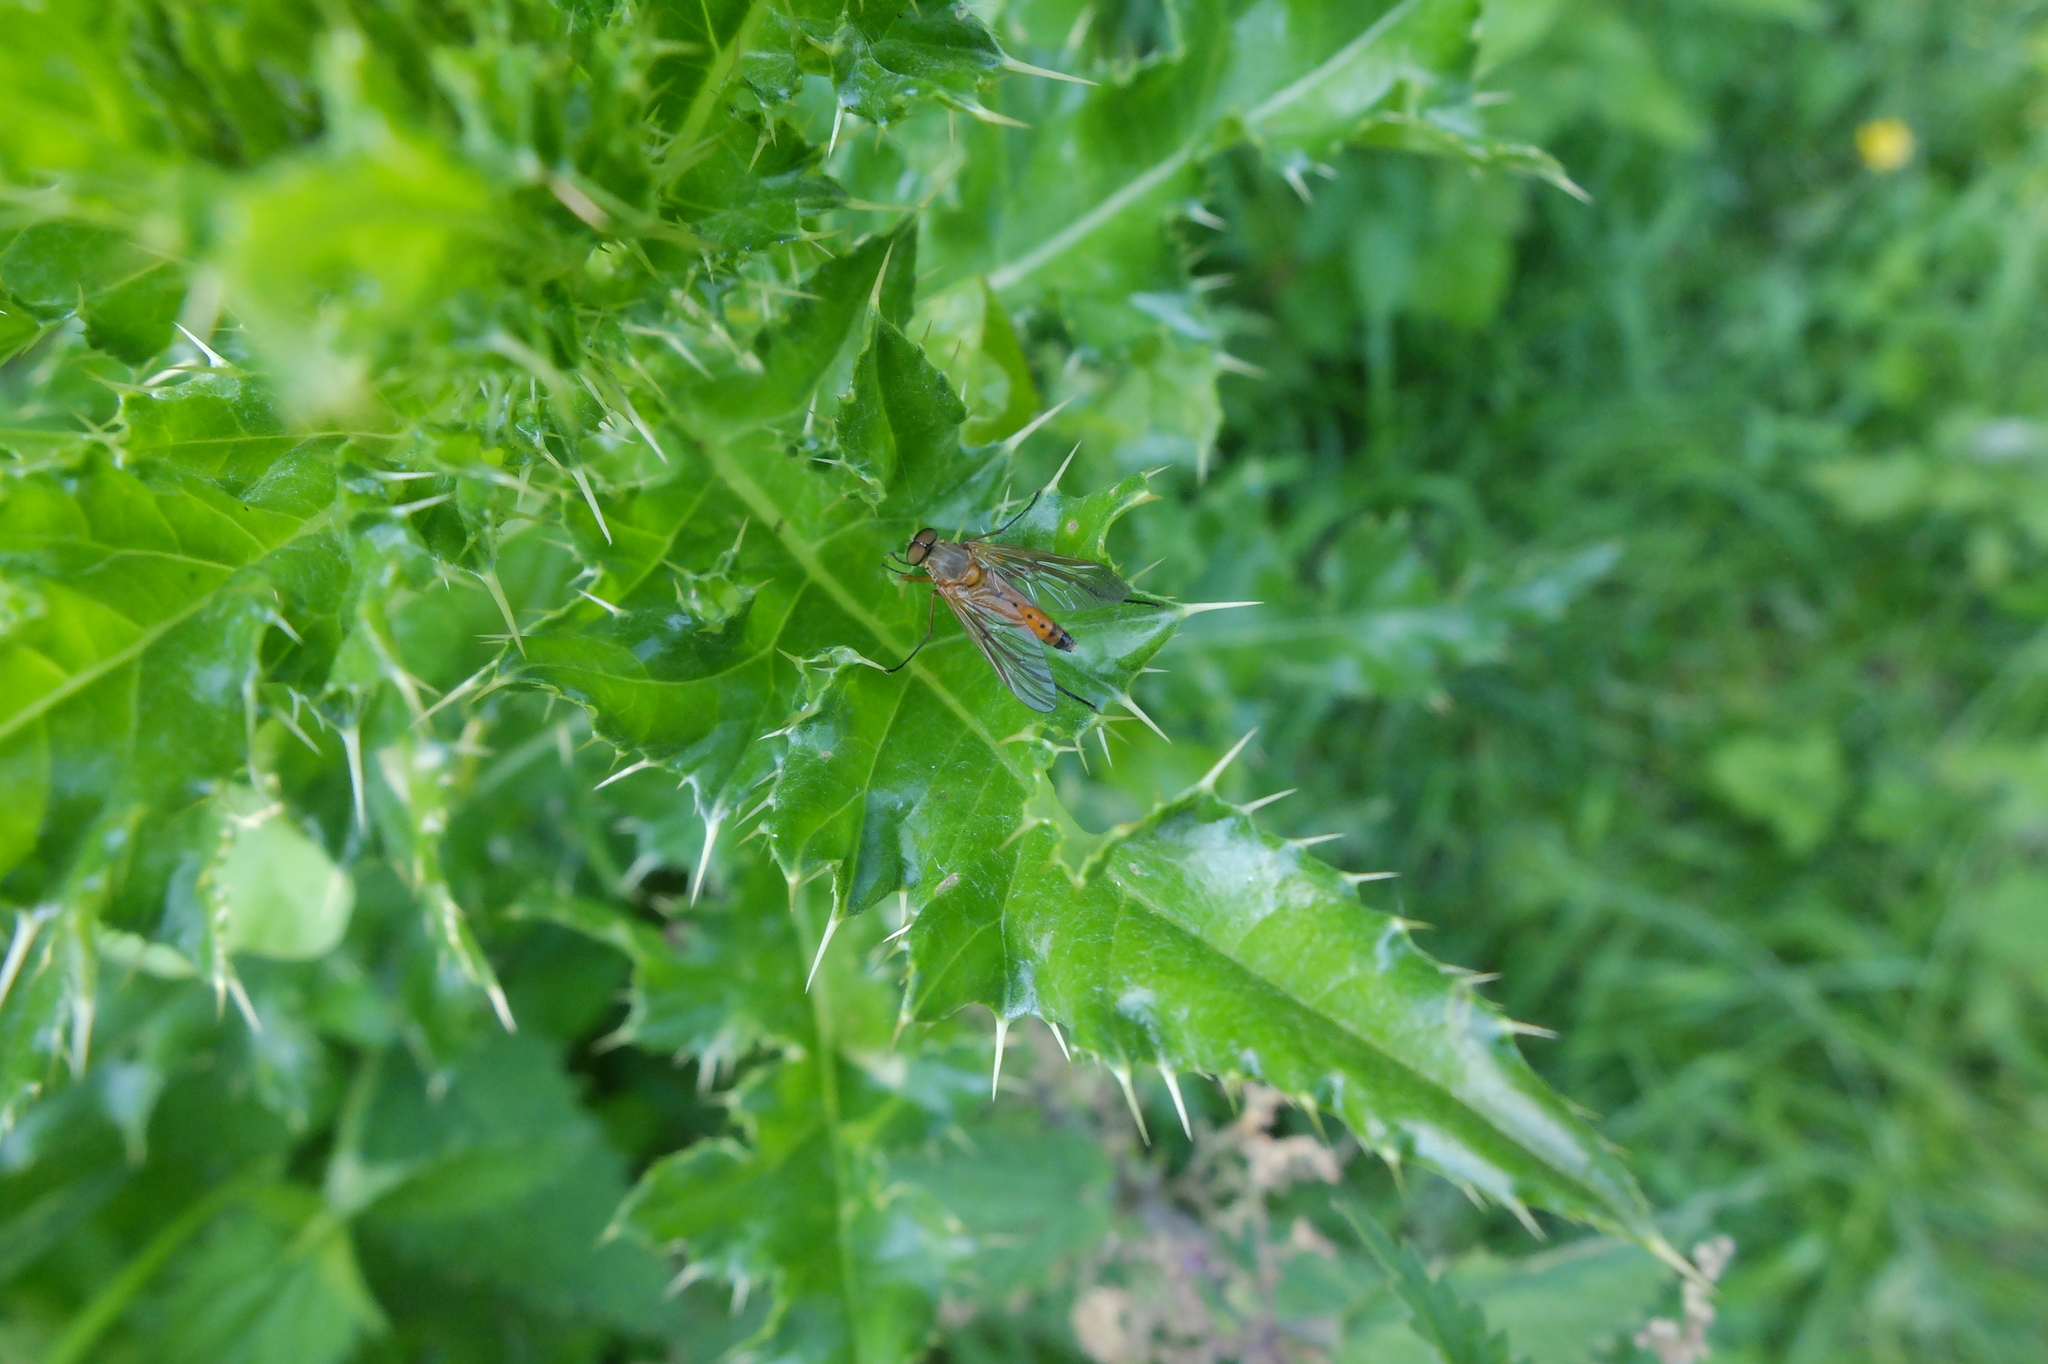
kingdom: Animalia
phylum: Arthropoda
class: Insecta
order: Diptera
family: Rhagionidae
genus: Rhagio
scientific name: Rhagio tringaria
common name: Marsh snipefly
